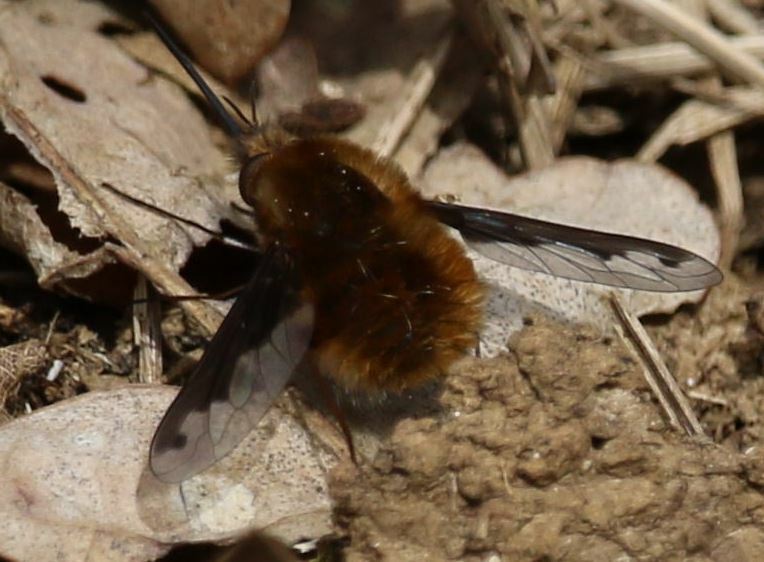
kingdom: Animalia
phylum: Arthropoda
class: Insecta
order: Diptera
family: Bombyliidae
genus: Bombylius
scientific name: Bombylius major
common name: Bee fly
